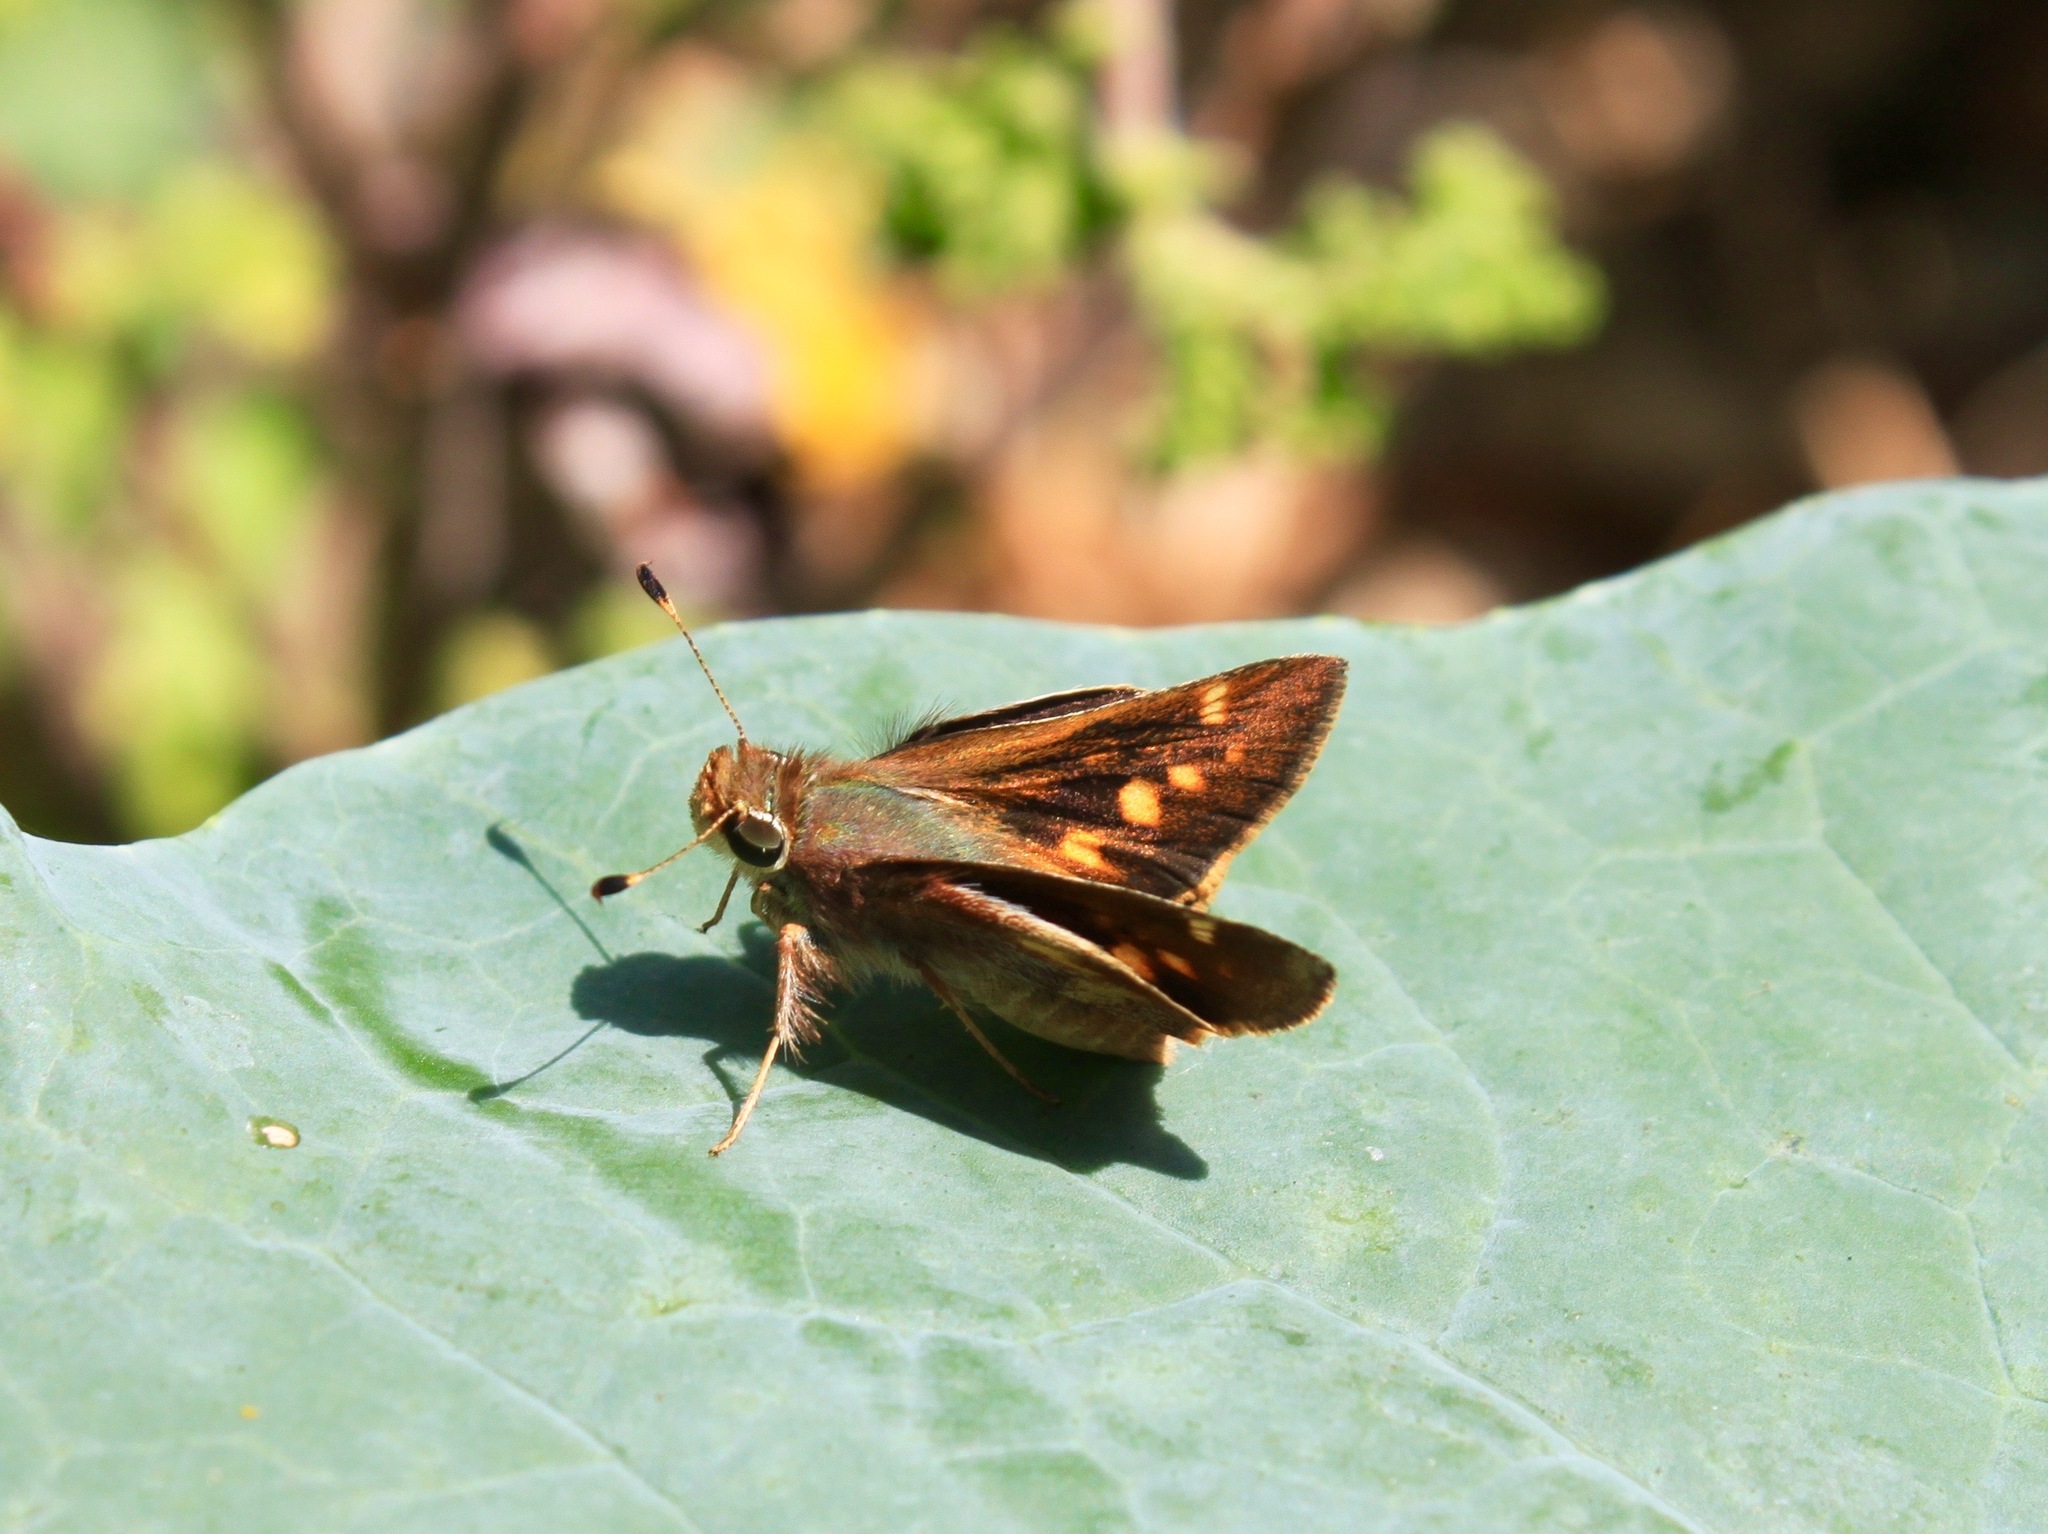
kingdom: Animalia
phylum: Arthropoda
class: Insecta
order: Lepidoptera
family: Hesperiidae
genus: Lon
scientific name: Lon melane
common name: Umber skipper
